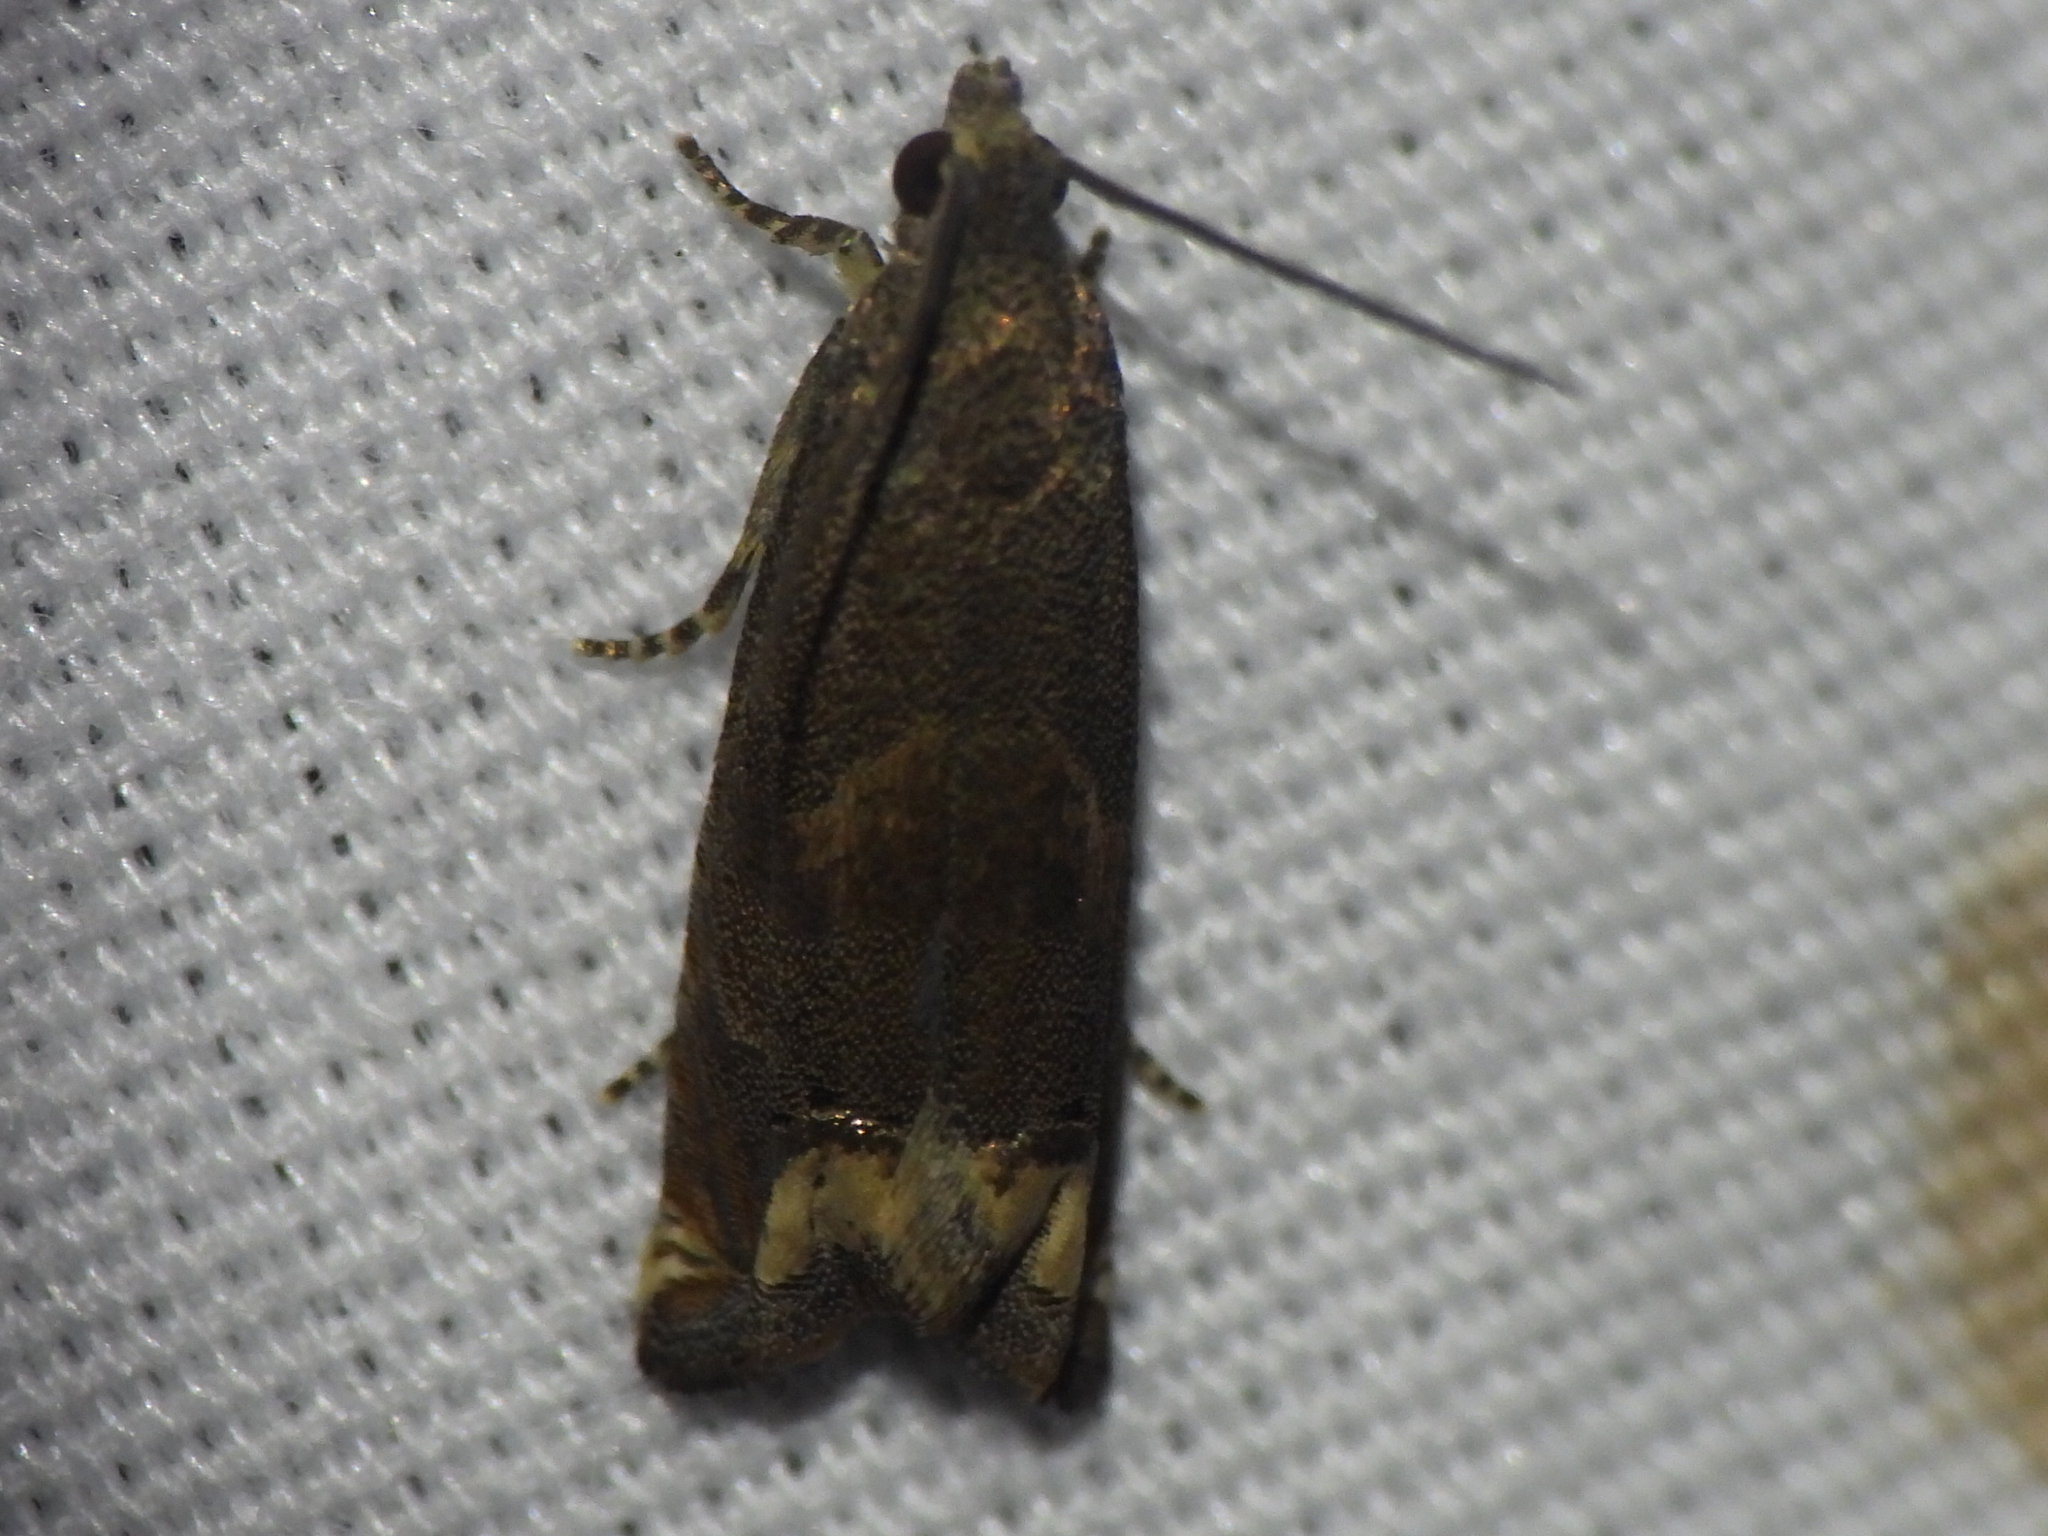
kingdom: Animalia
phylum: Arthropoda
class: Insecta
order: Lepidoptera
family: Tortricidae
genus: Epiblema
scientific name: Epiblema strenuana
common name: Ragweed borer moth
